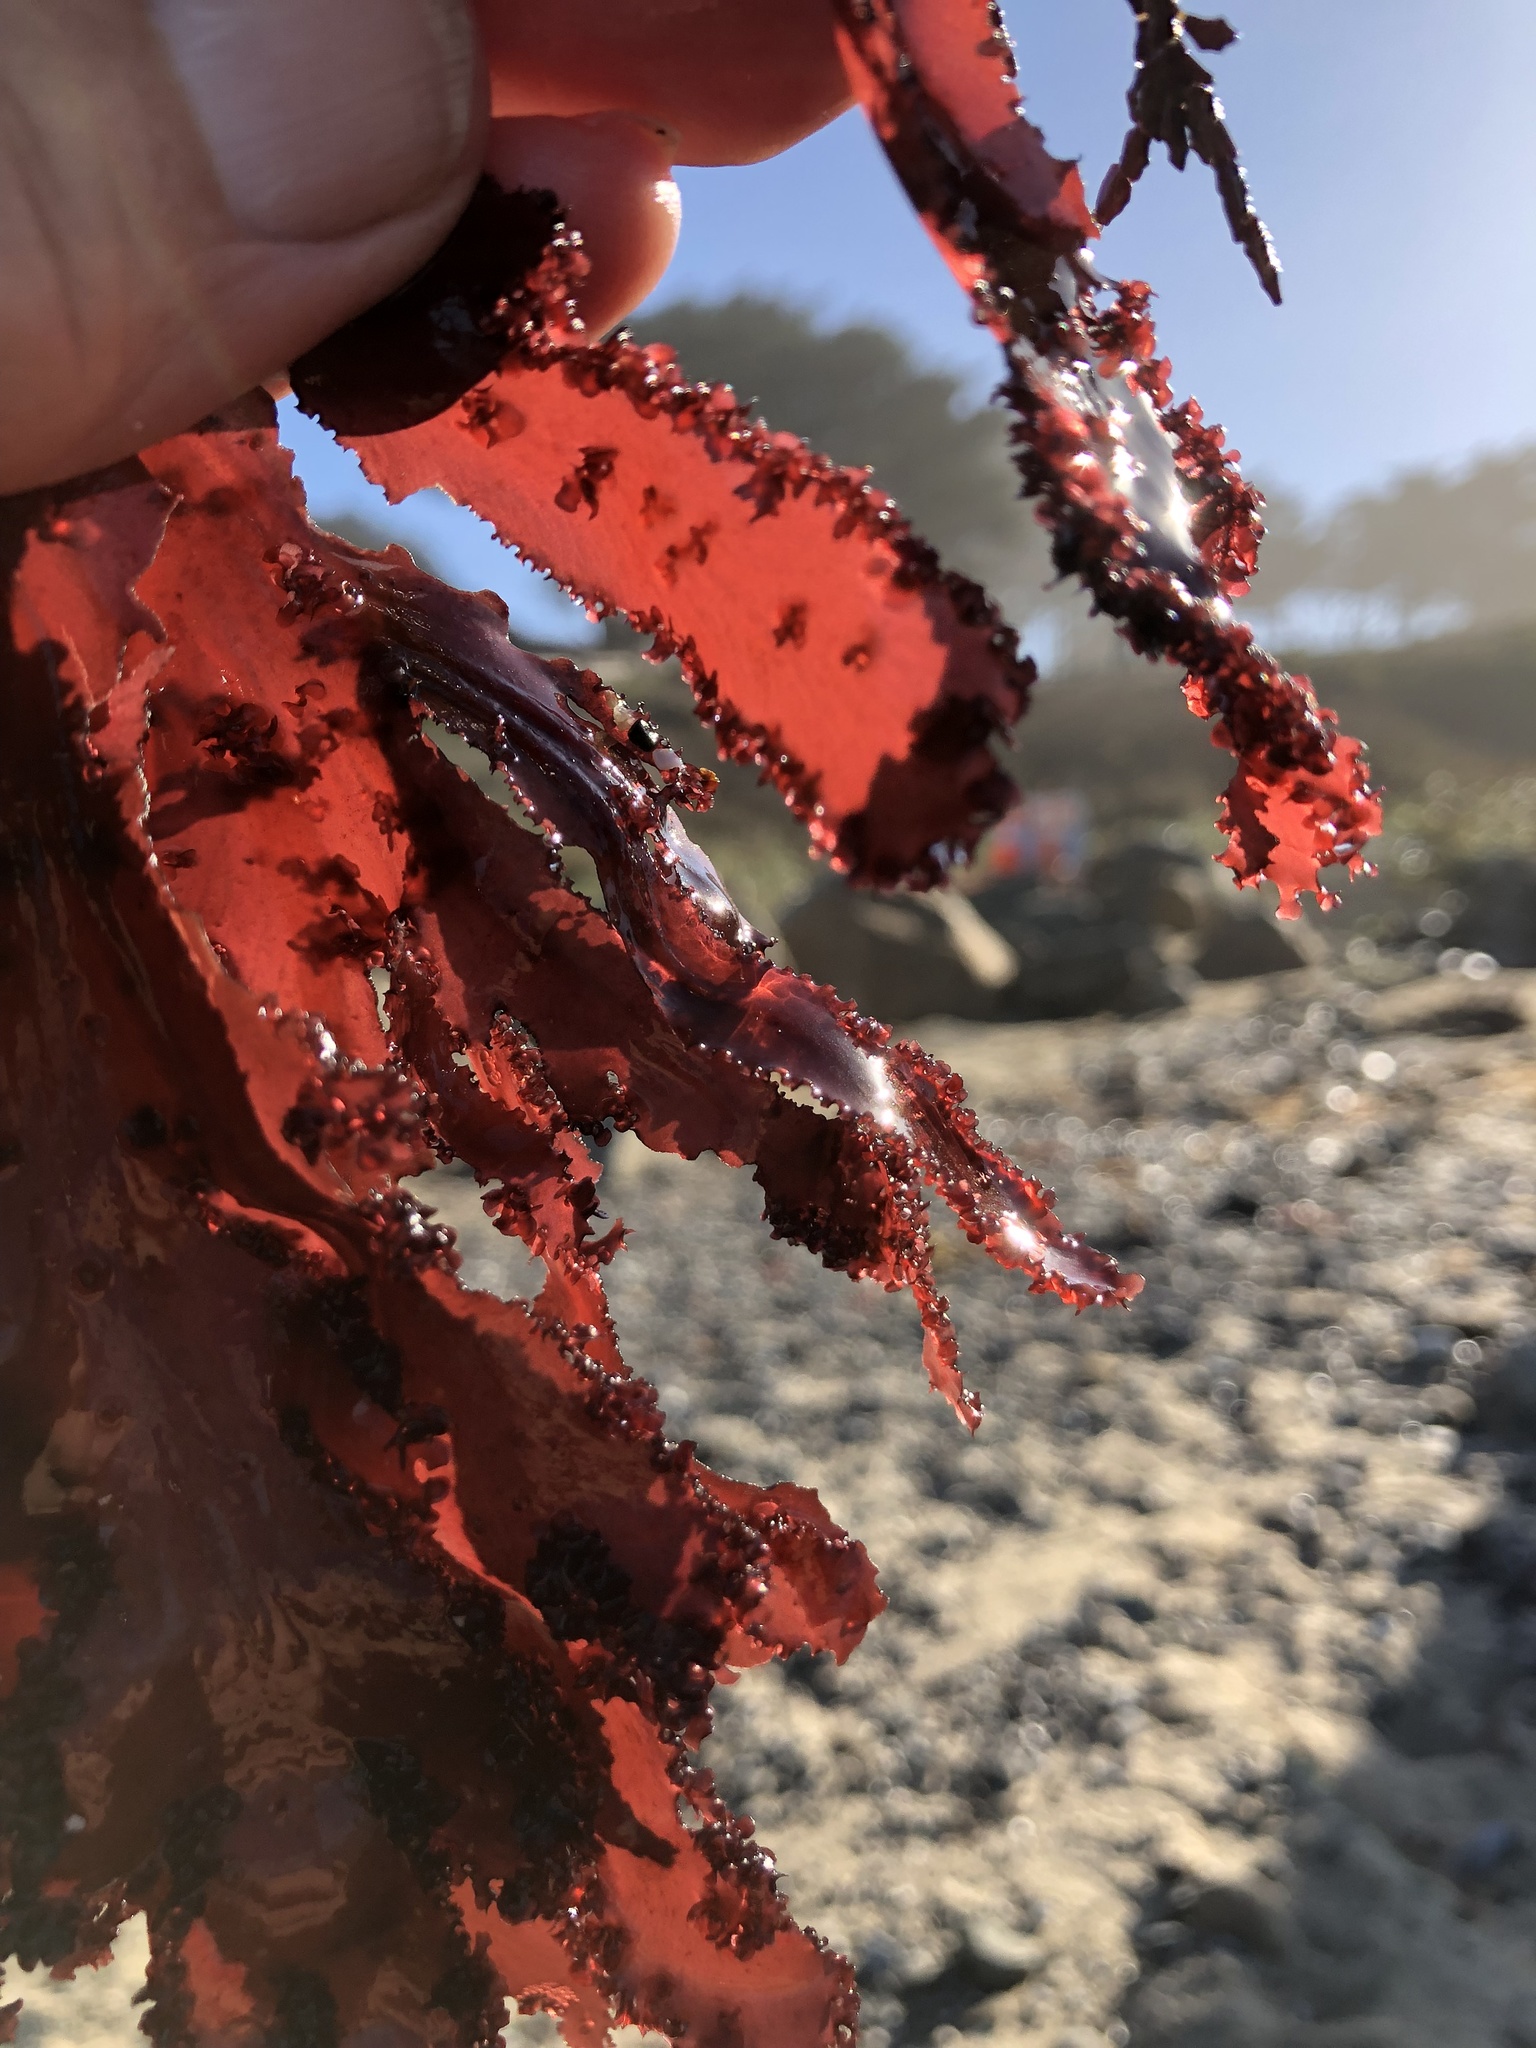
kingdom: Plantae
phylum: Rhodophyta
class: Florideophyceae
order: Ceramiales
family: Delesseriaceae
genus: Cryptopleura
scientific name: Cryptopleura ruprechtiana
